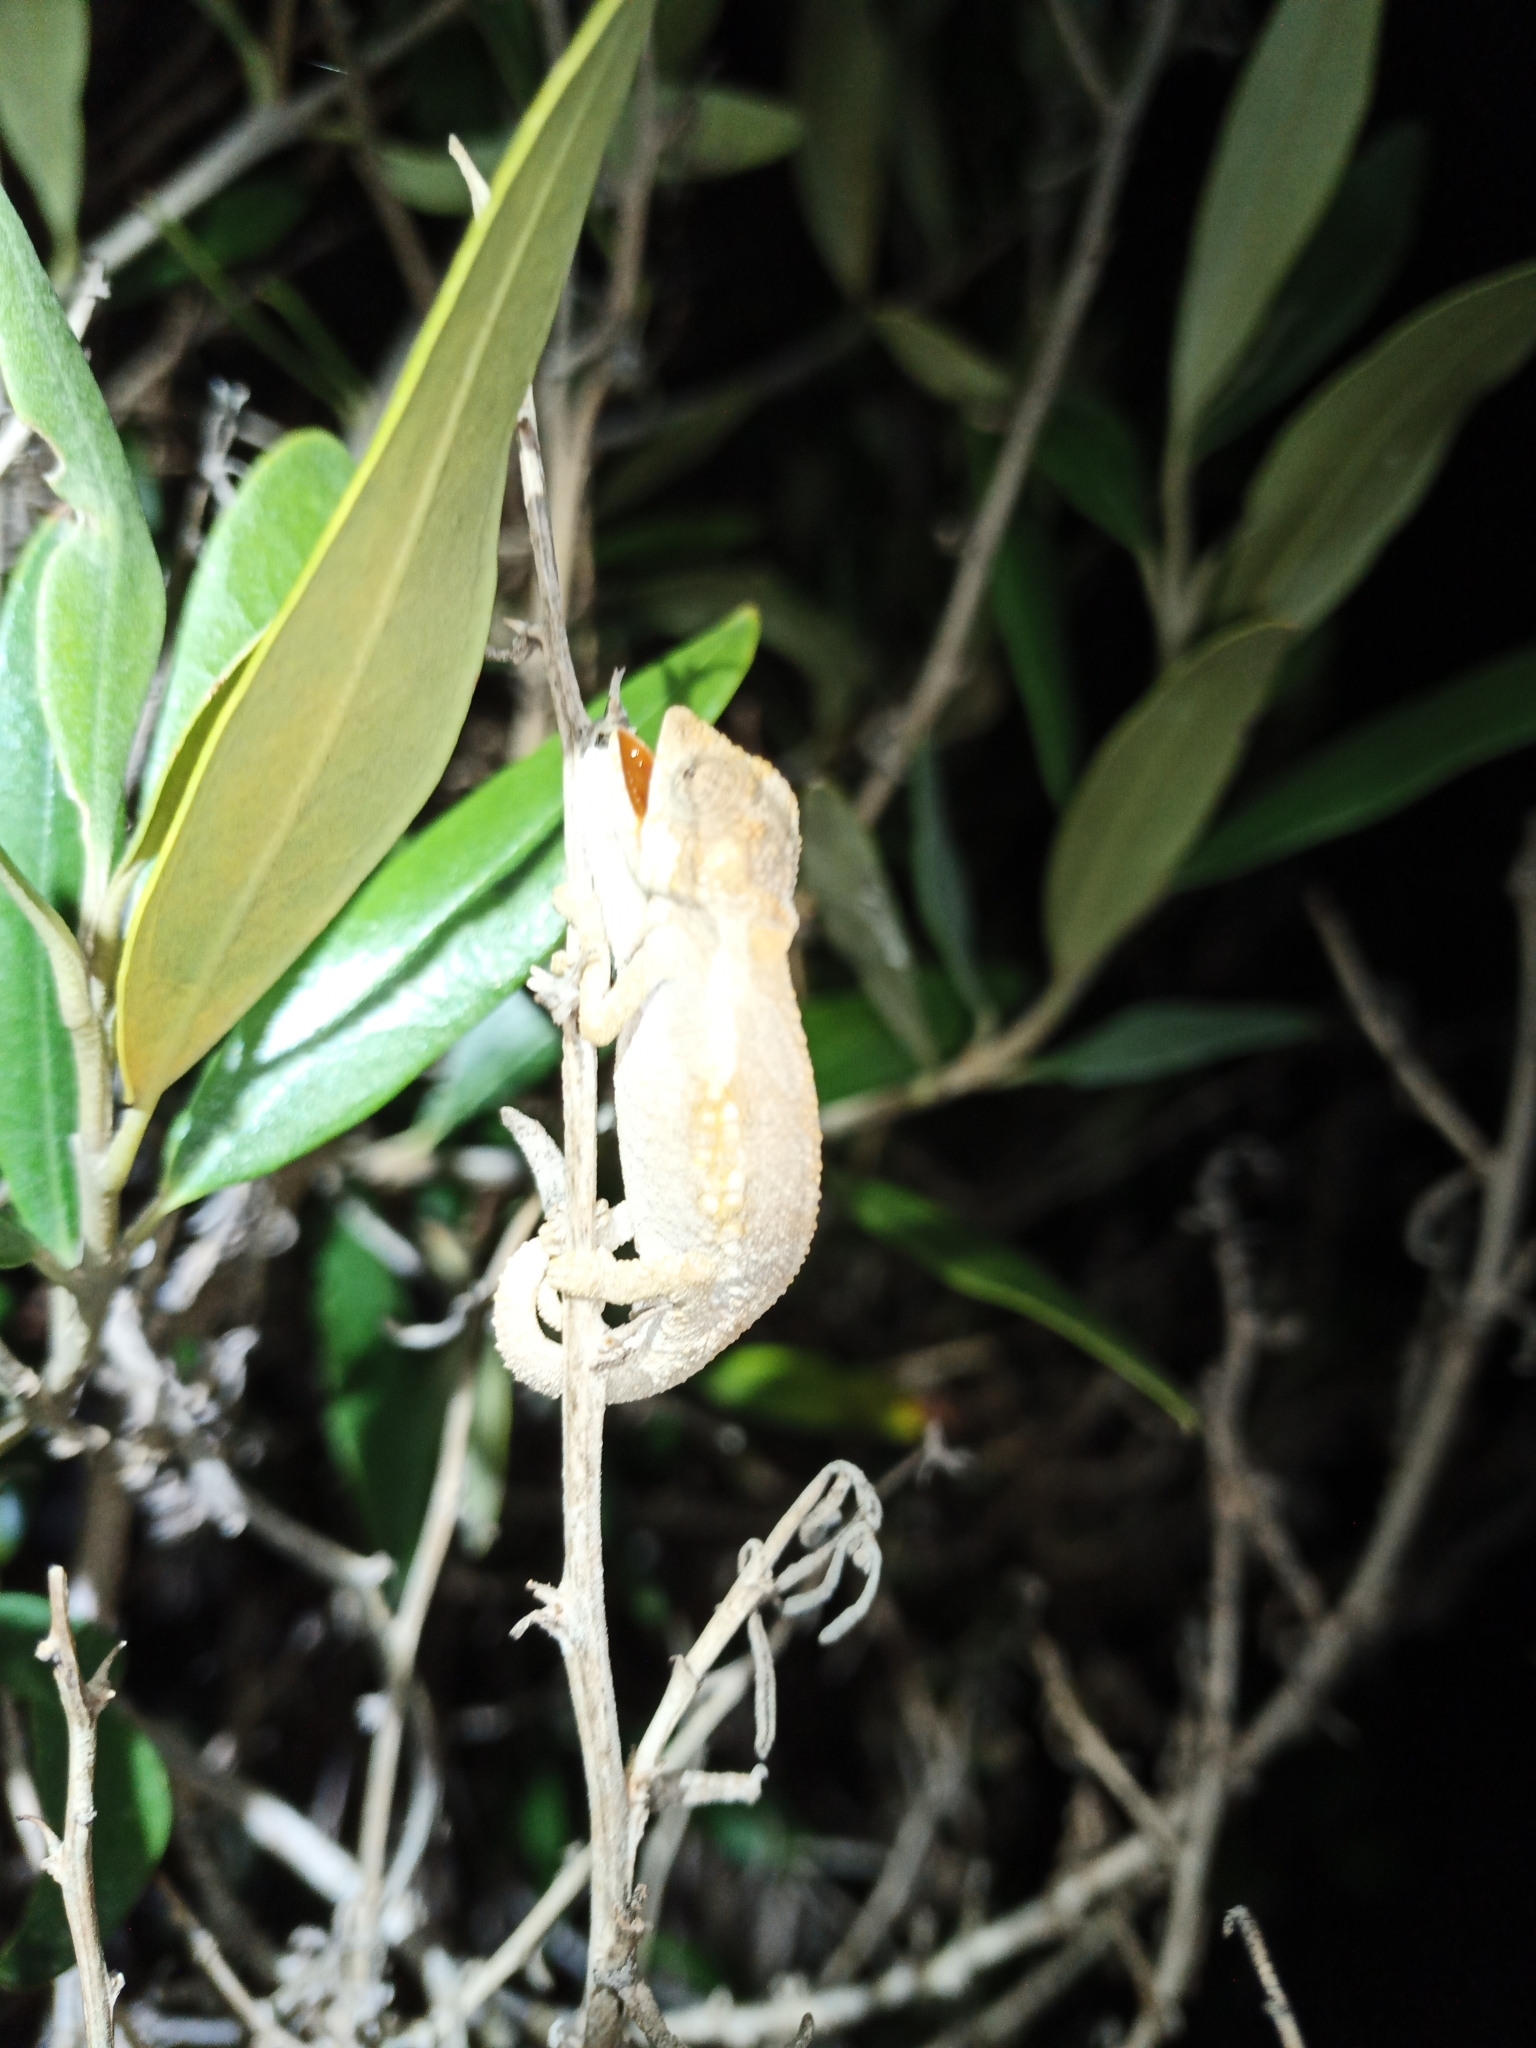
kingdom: Animalia
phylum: Chordata
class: Squamata
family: Chamaeleonidae
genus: Bradypodion
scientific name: Bradypodion ventrale
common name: Eastern cape dwarf chameleon
